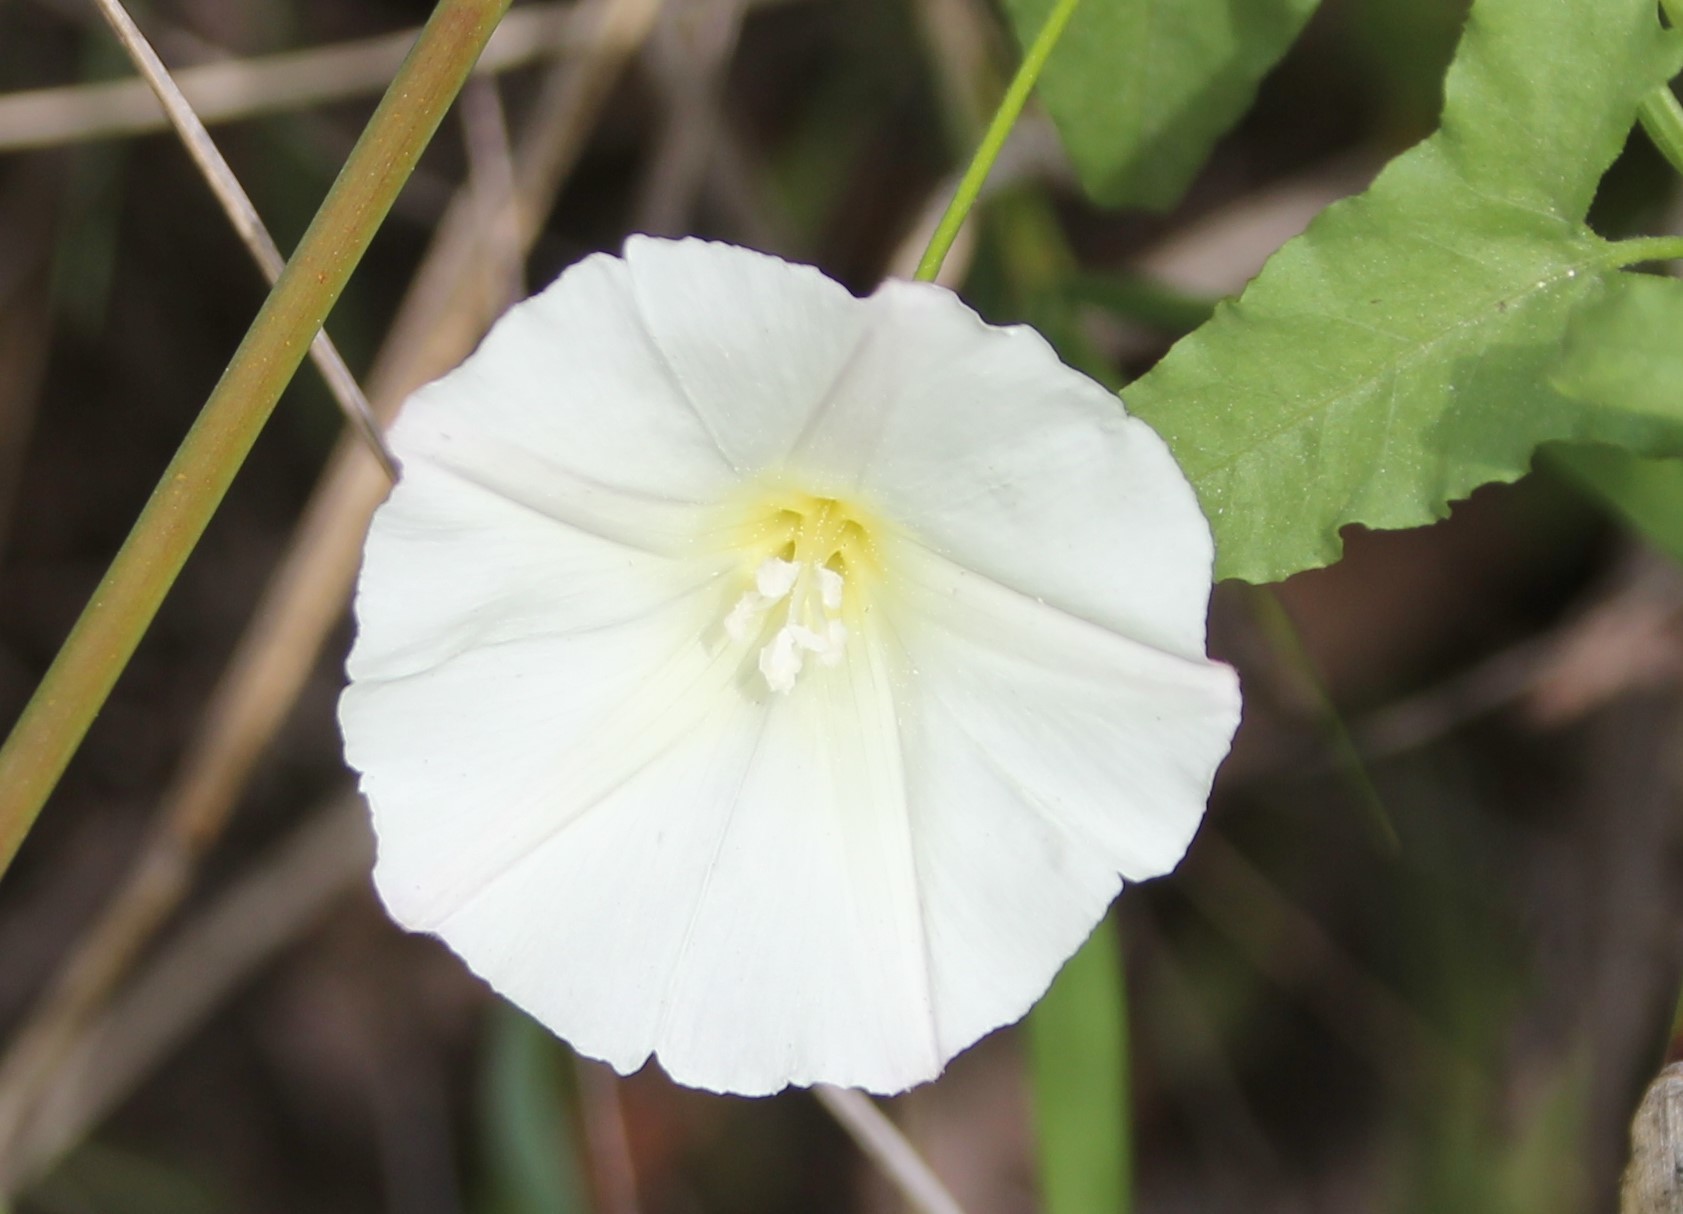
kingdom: Plantae
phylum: Tracheophyta
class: Magnoliopsida
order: Solanales
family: Convolvulaceae
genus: Calystegia
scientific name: Calystegia macrostegia
